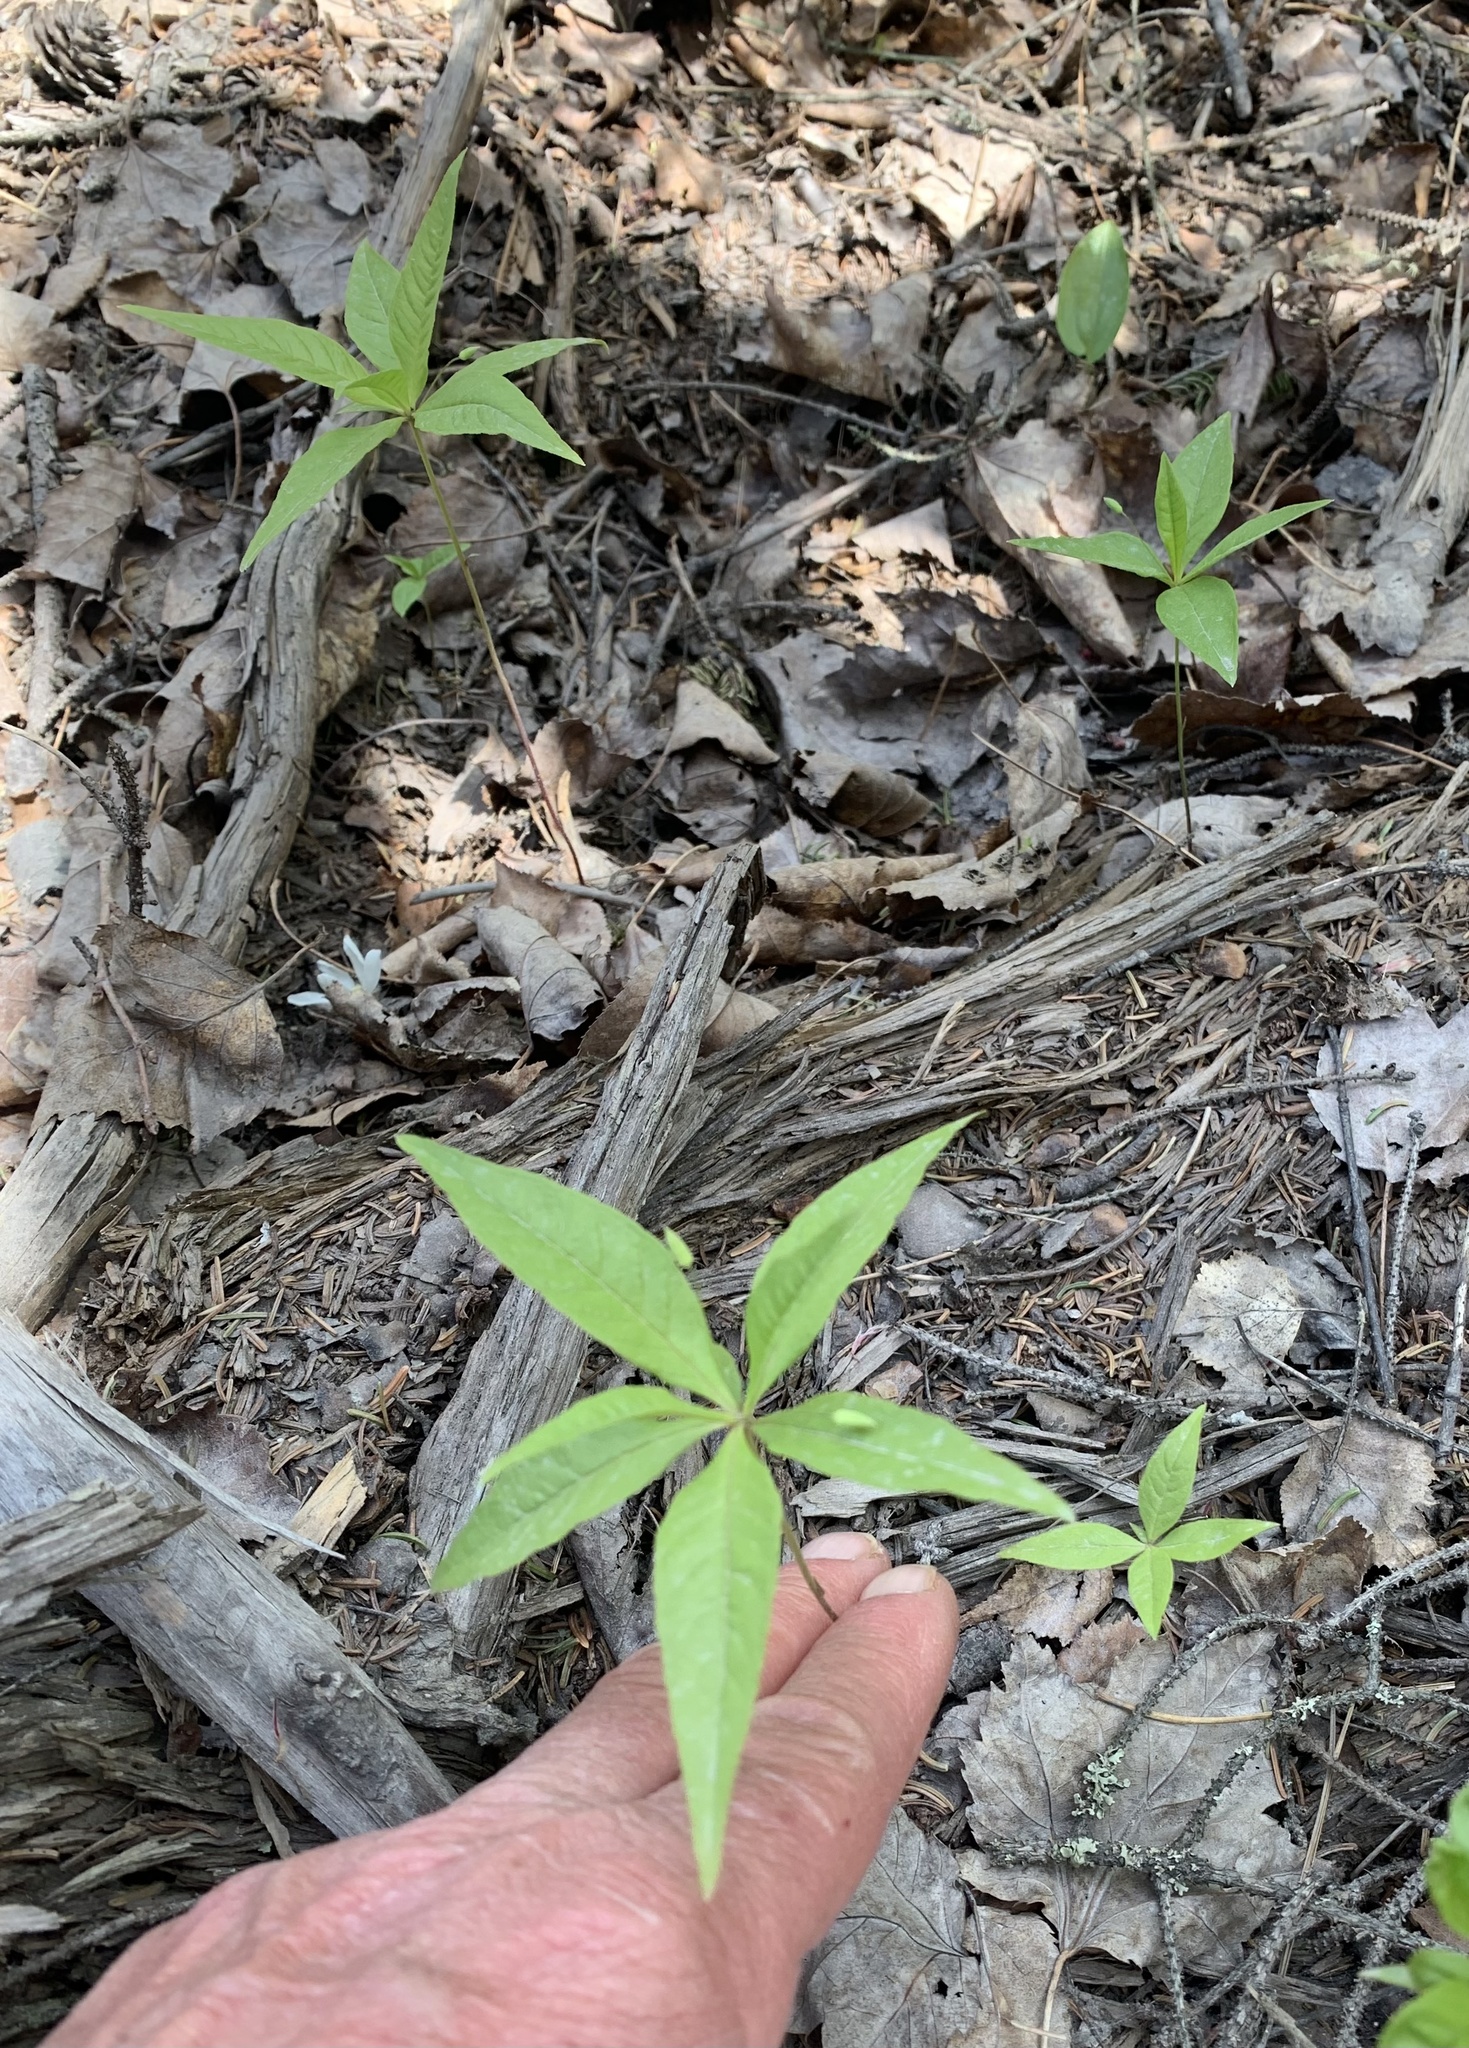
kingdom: Plantae
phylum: Tracheophyta
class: Magnoliopsida
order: Ericales
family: Primulaceae
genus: Lysimachia
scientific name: Lysimachia borealis
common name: American starflower
